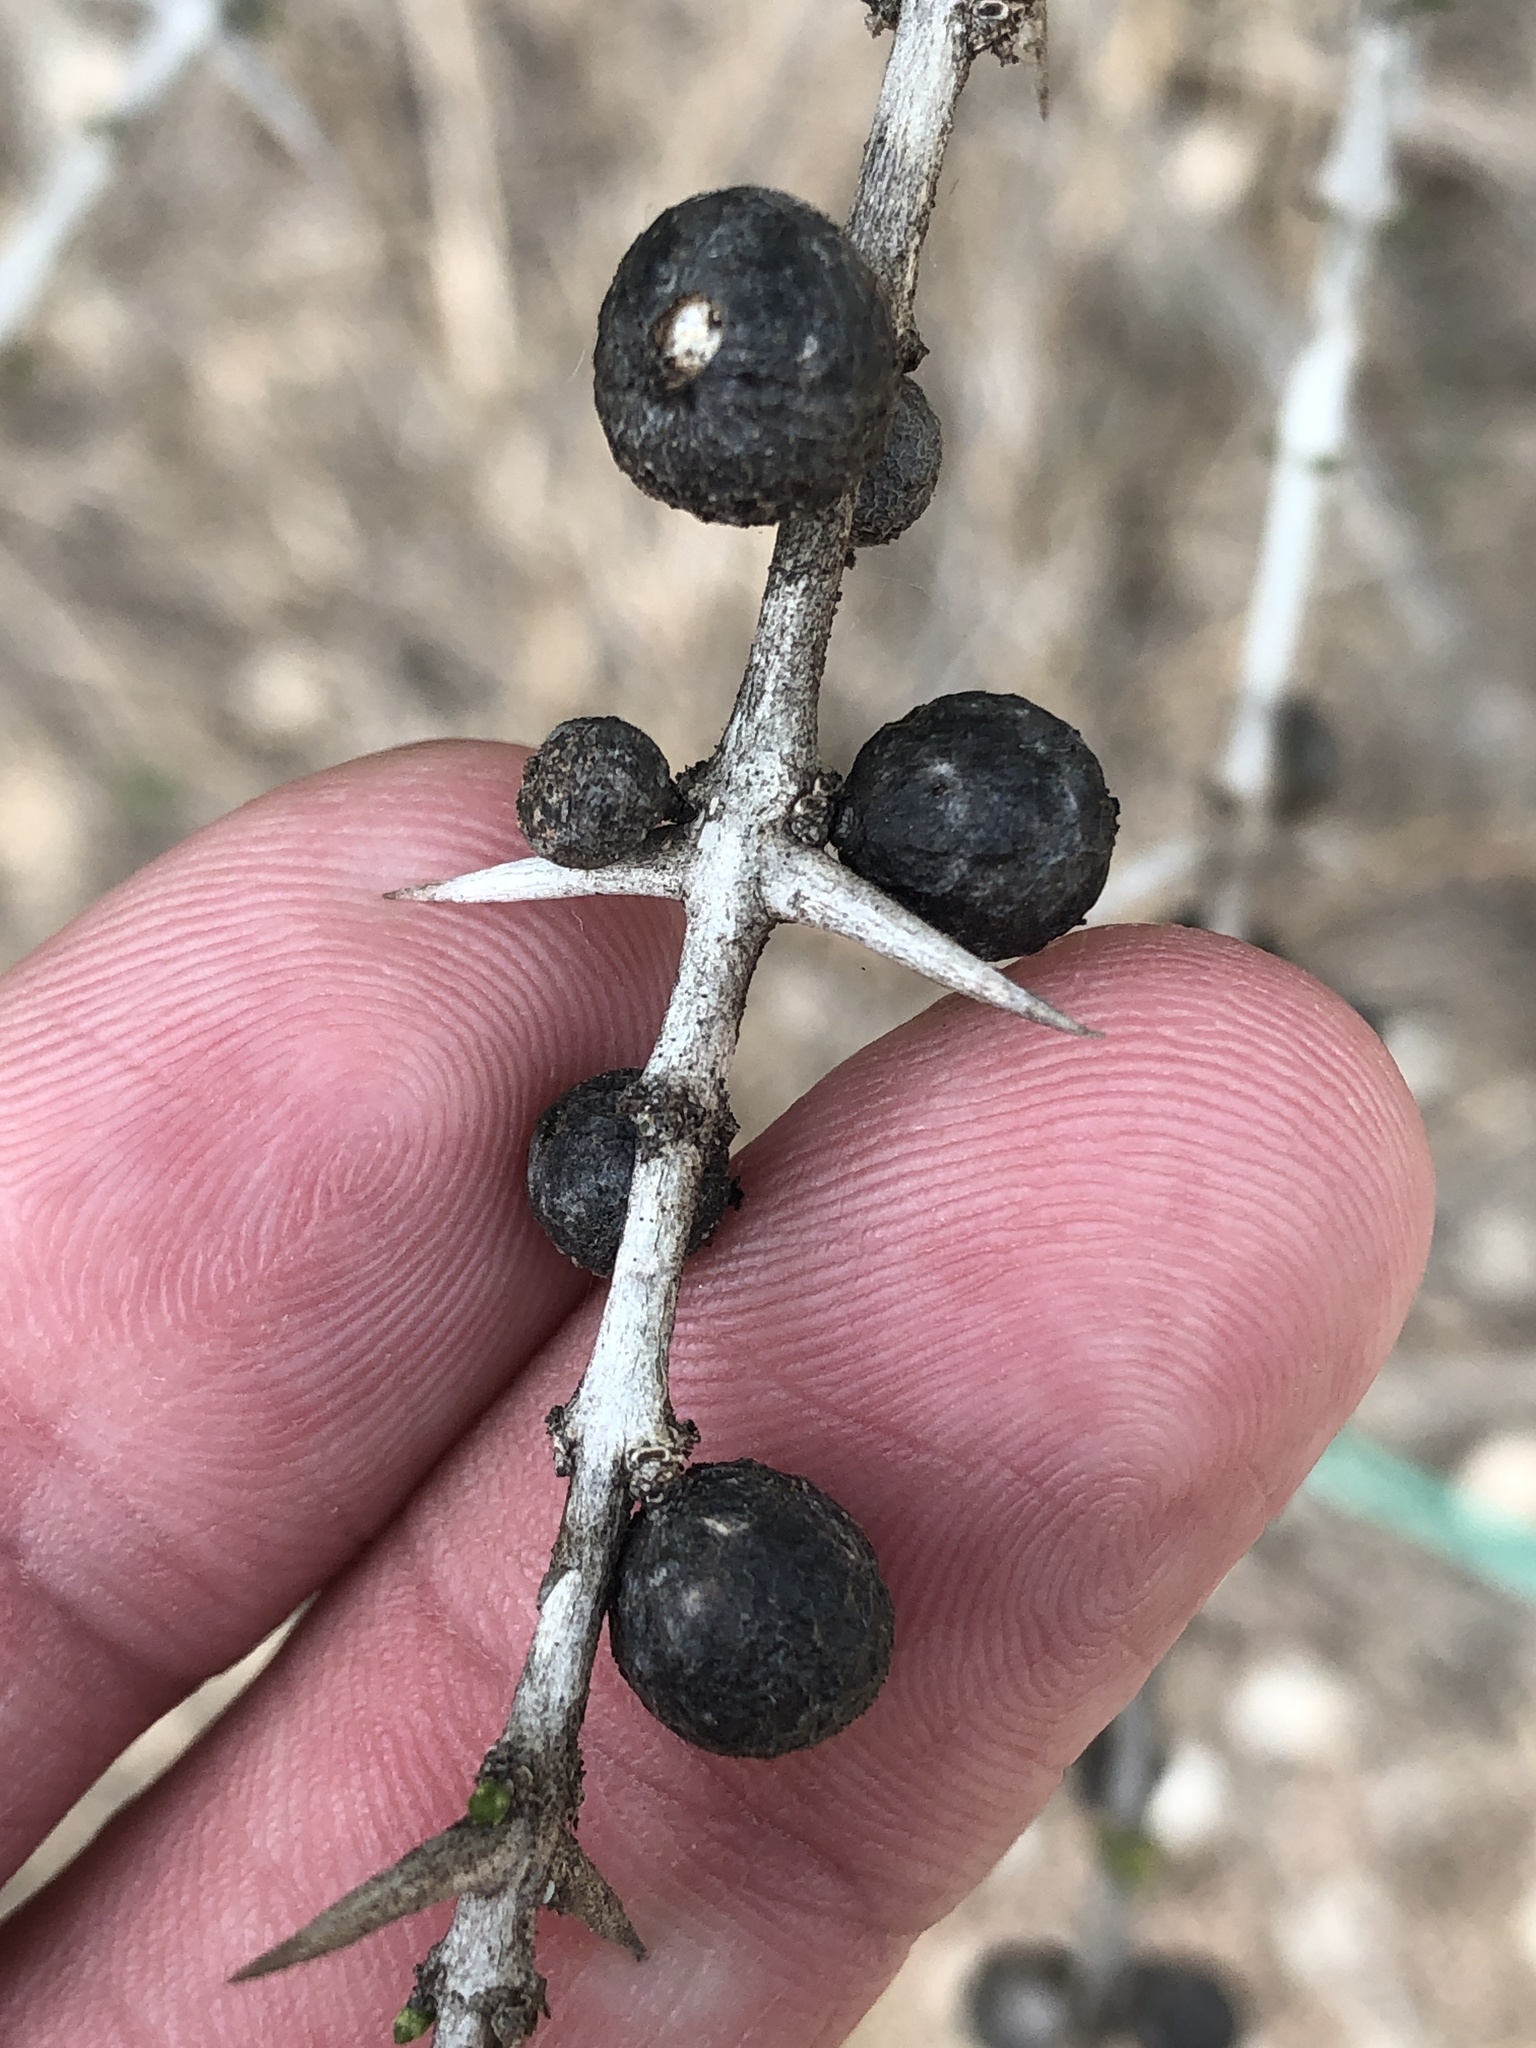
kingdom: Plantae
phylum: Tracheophyta
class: Magnoliopsida
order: Gentianales
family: Rubiaceae
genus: Randia
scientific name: Randia obcordata
